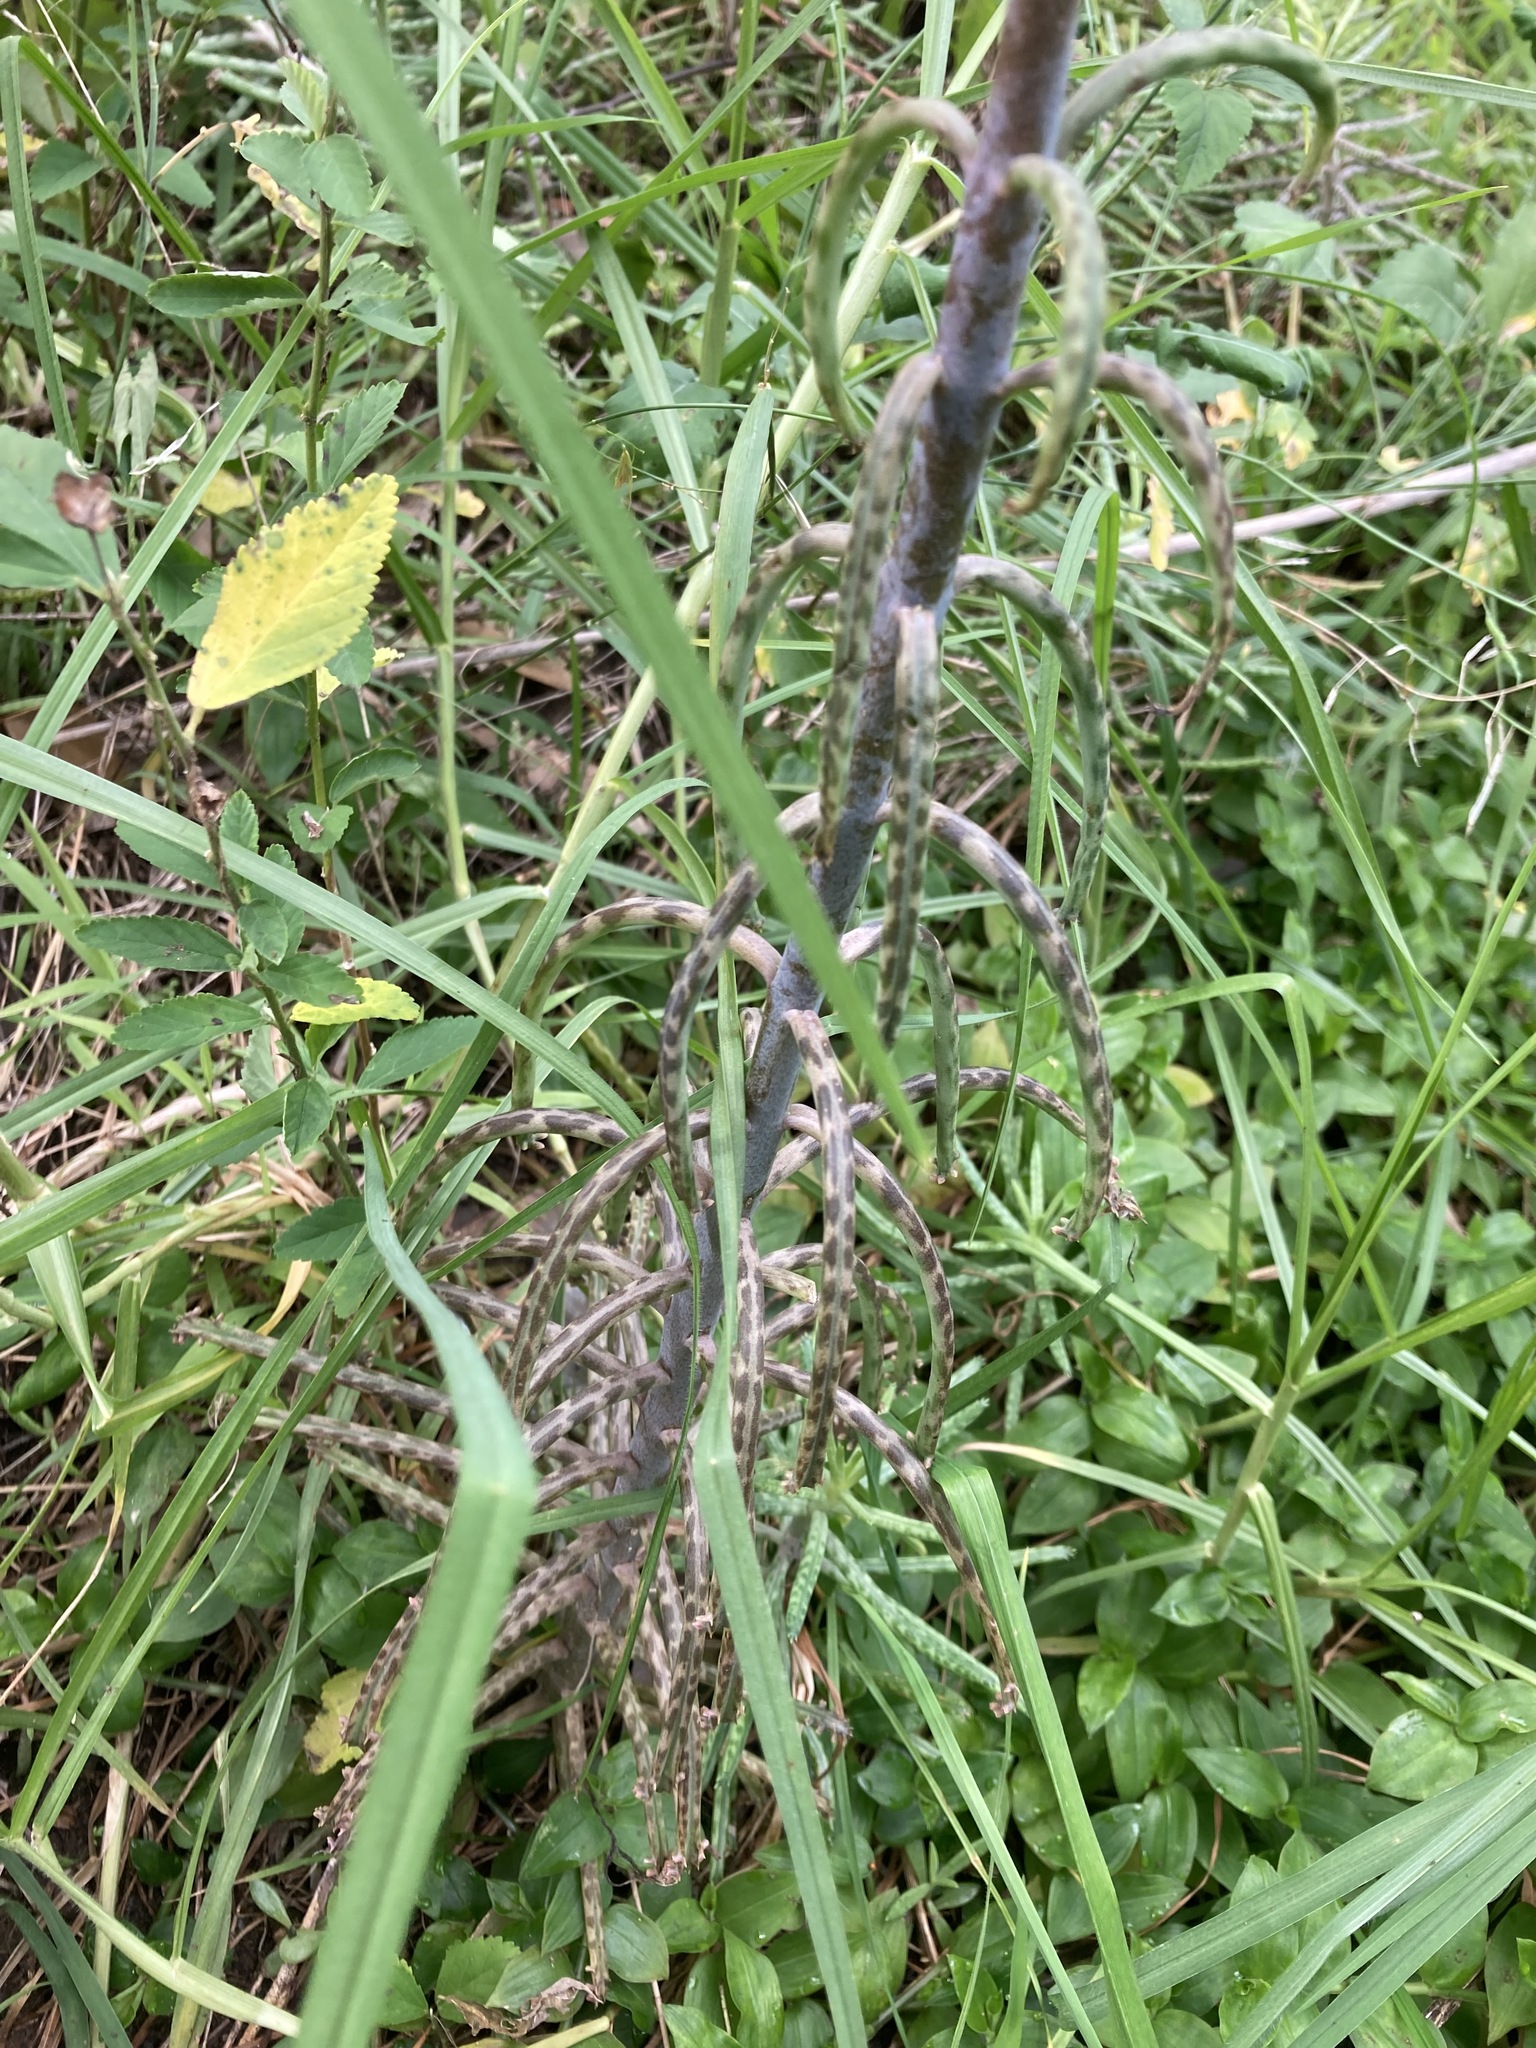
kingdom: Plantae
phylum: Tracheophyta
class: Magnoliopsida
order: Saxifragales
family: Crassulaceae
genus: Kalanchoe
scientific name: Kalanchoe delagoensis
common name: Chandelier plant
